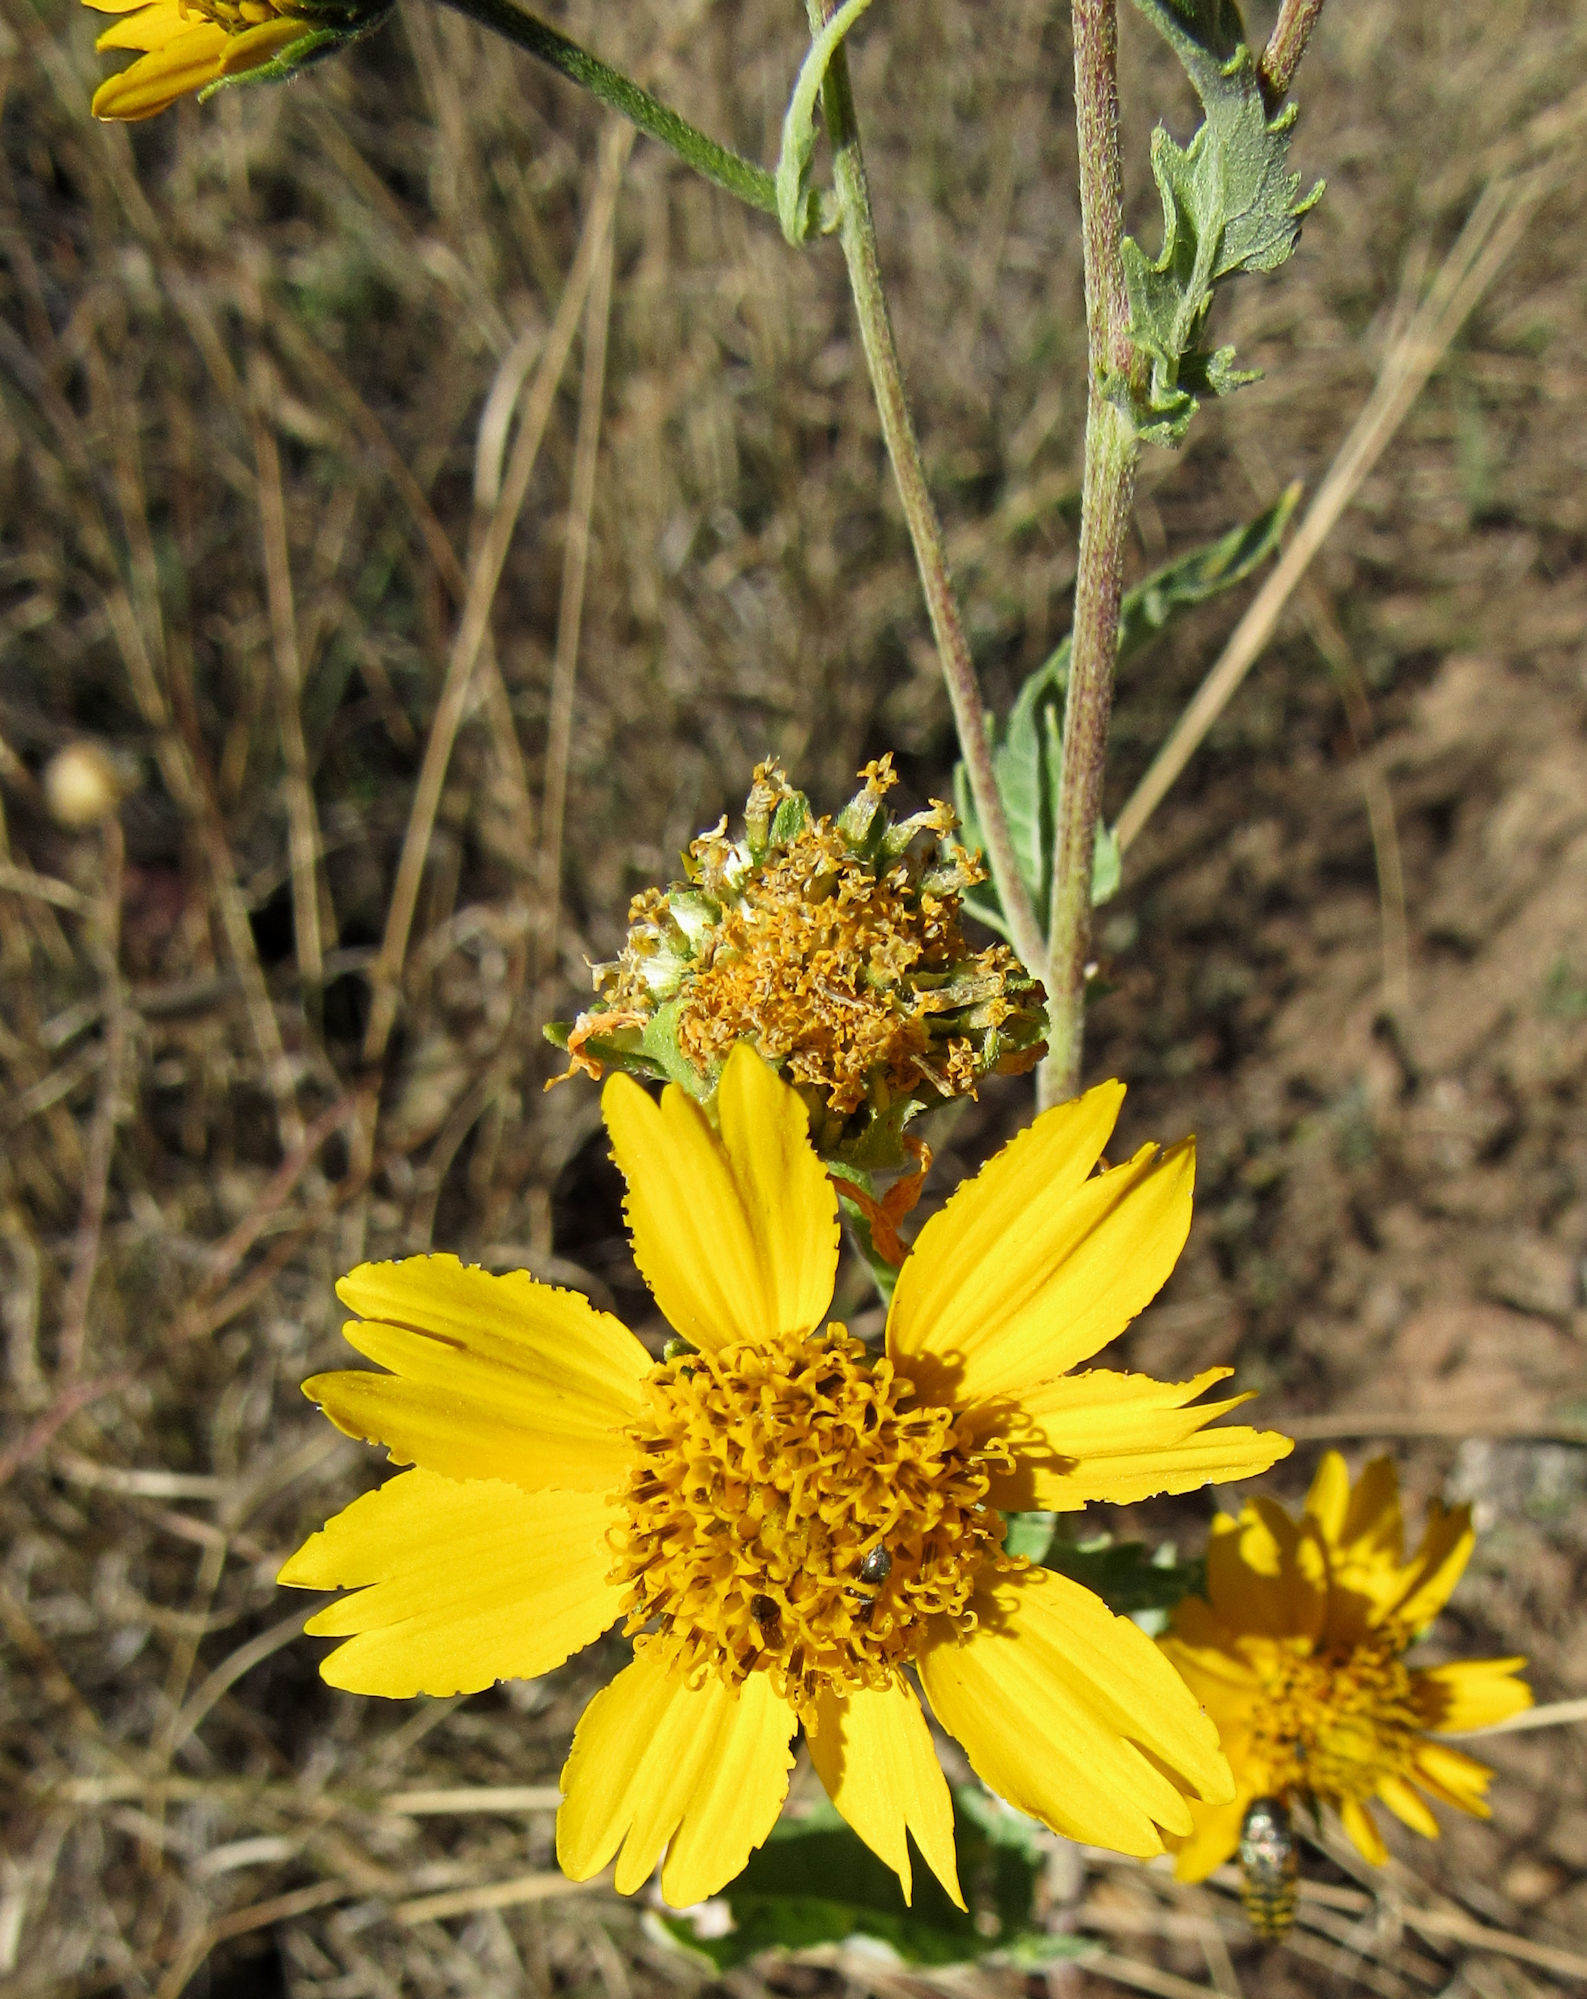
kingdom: Plantae
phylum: Tracheophyta
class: Magnoliopsida
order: Asterales
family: Asteraceae
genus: Verbesina
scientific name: Verbesina encelioides
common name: Golden crownbeard
